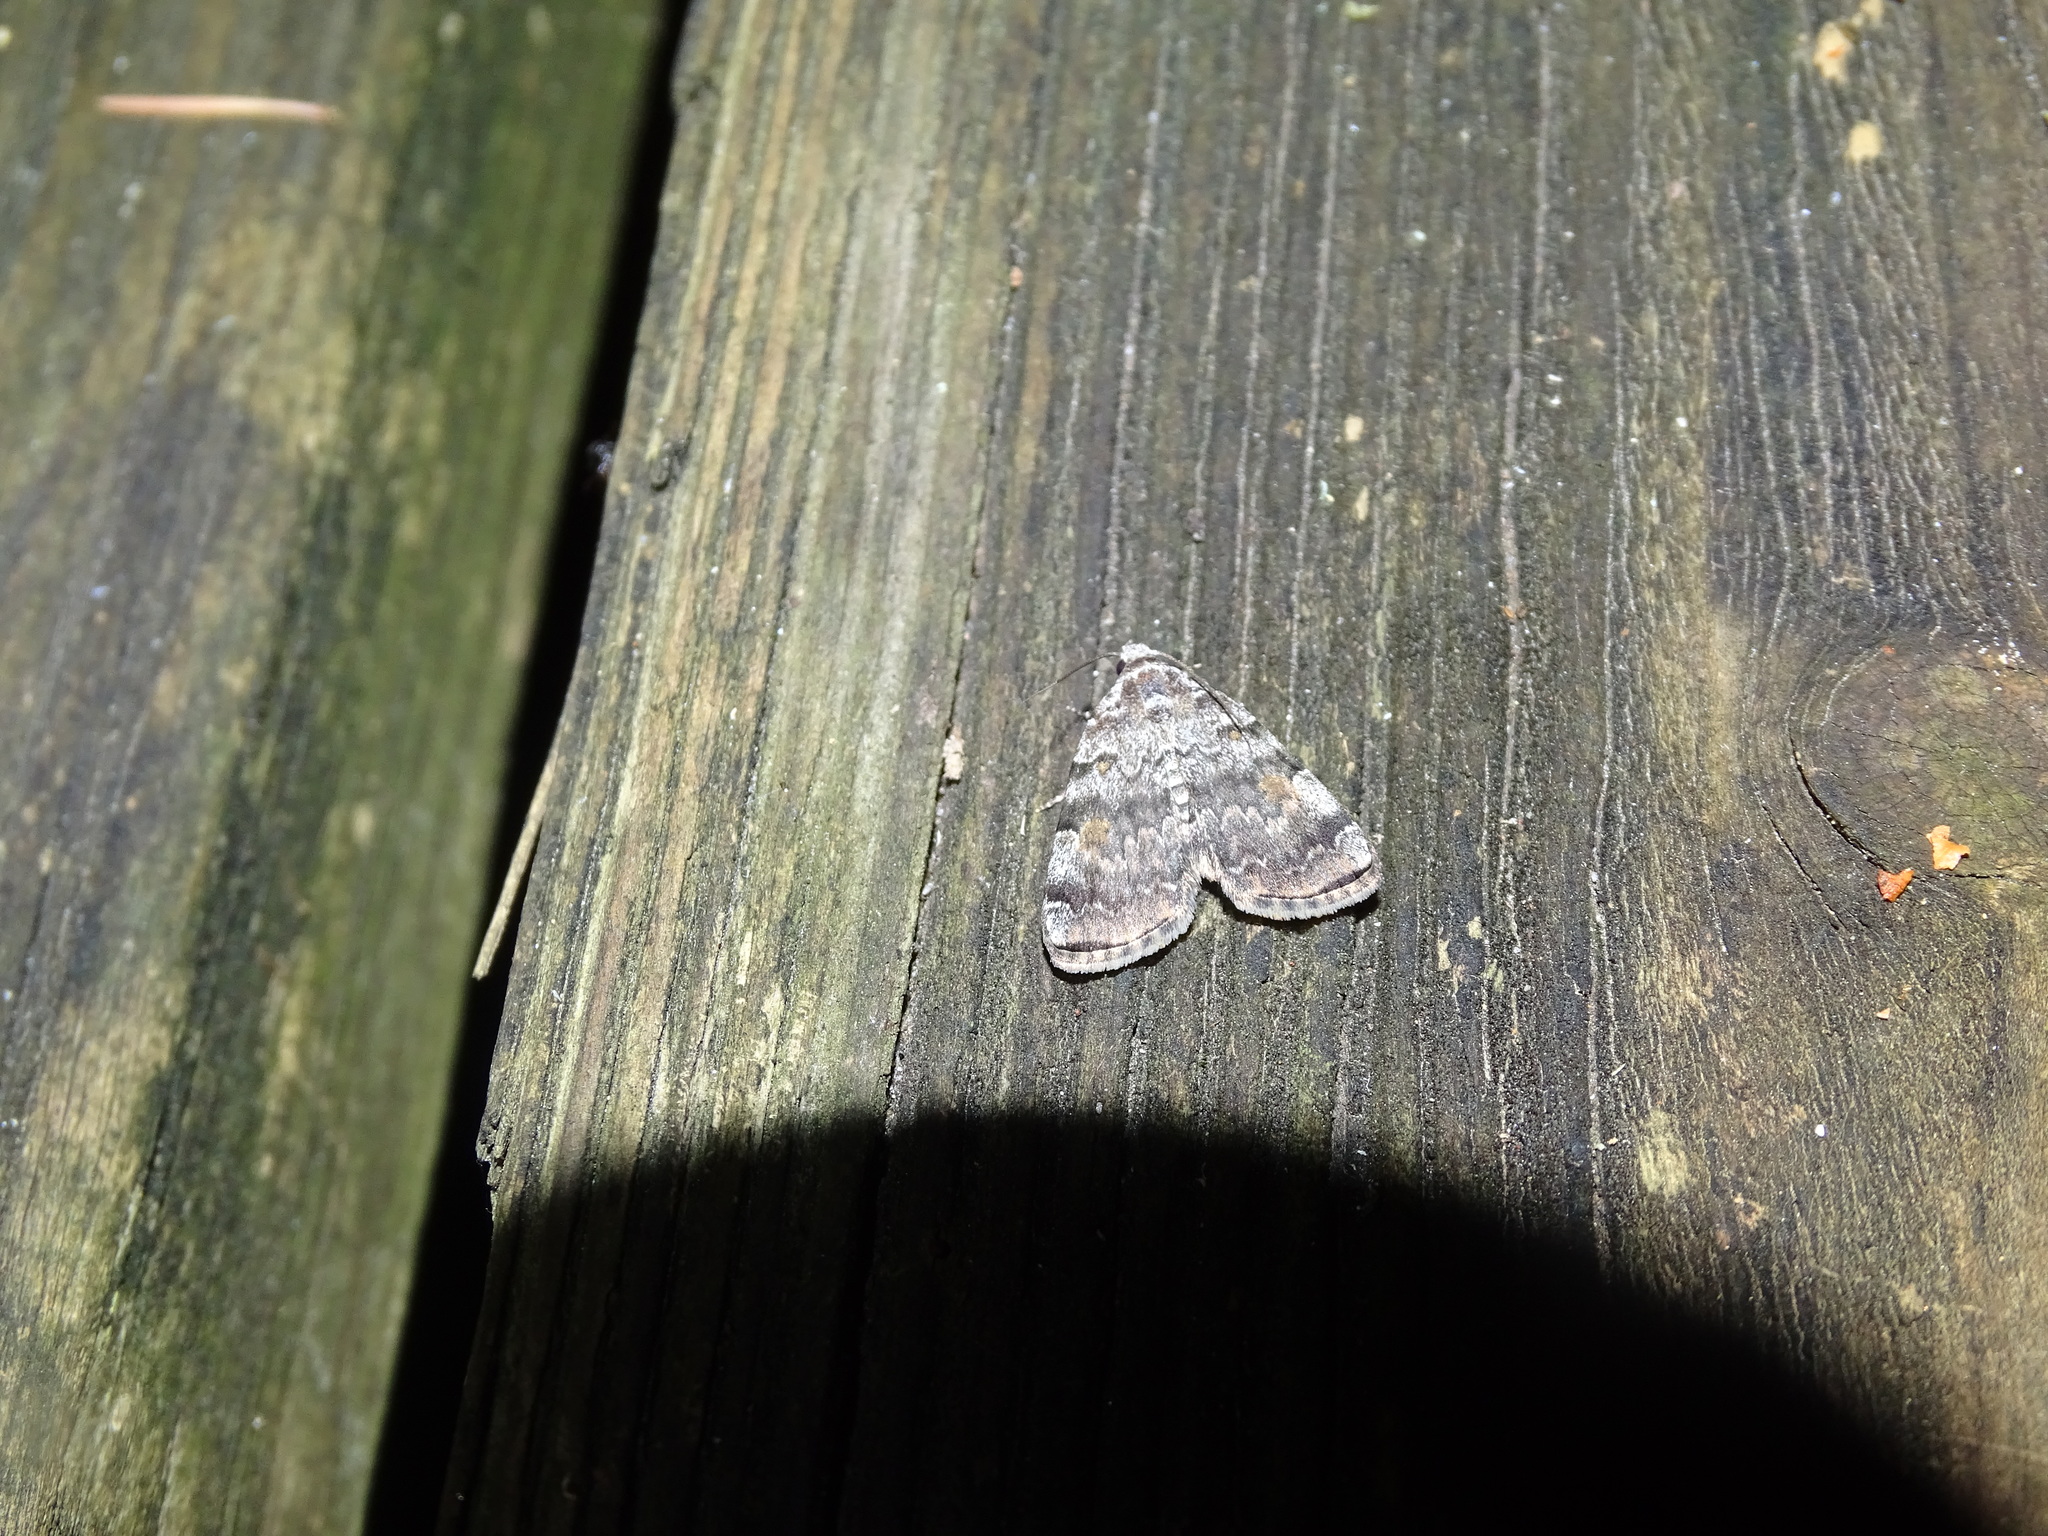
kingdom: Animalia
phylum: Arthropoda
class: Insecta
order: Lepidoptera
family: Erebidae
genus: Idia
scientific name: Idia americalis
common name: American idia moth
